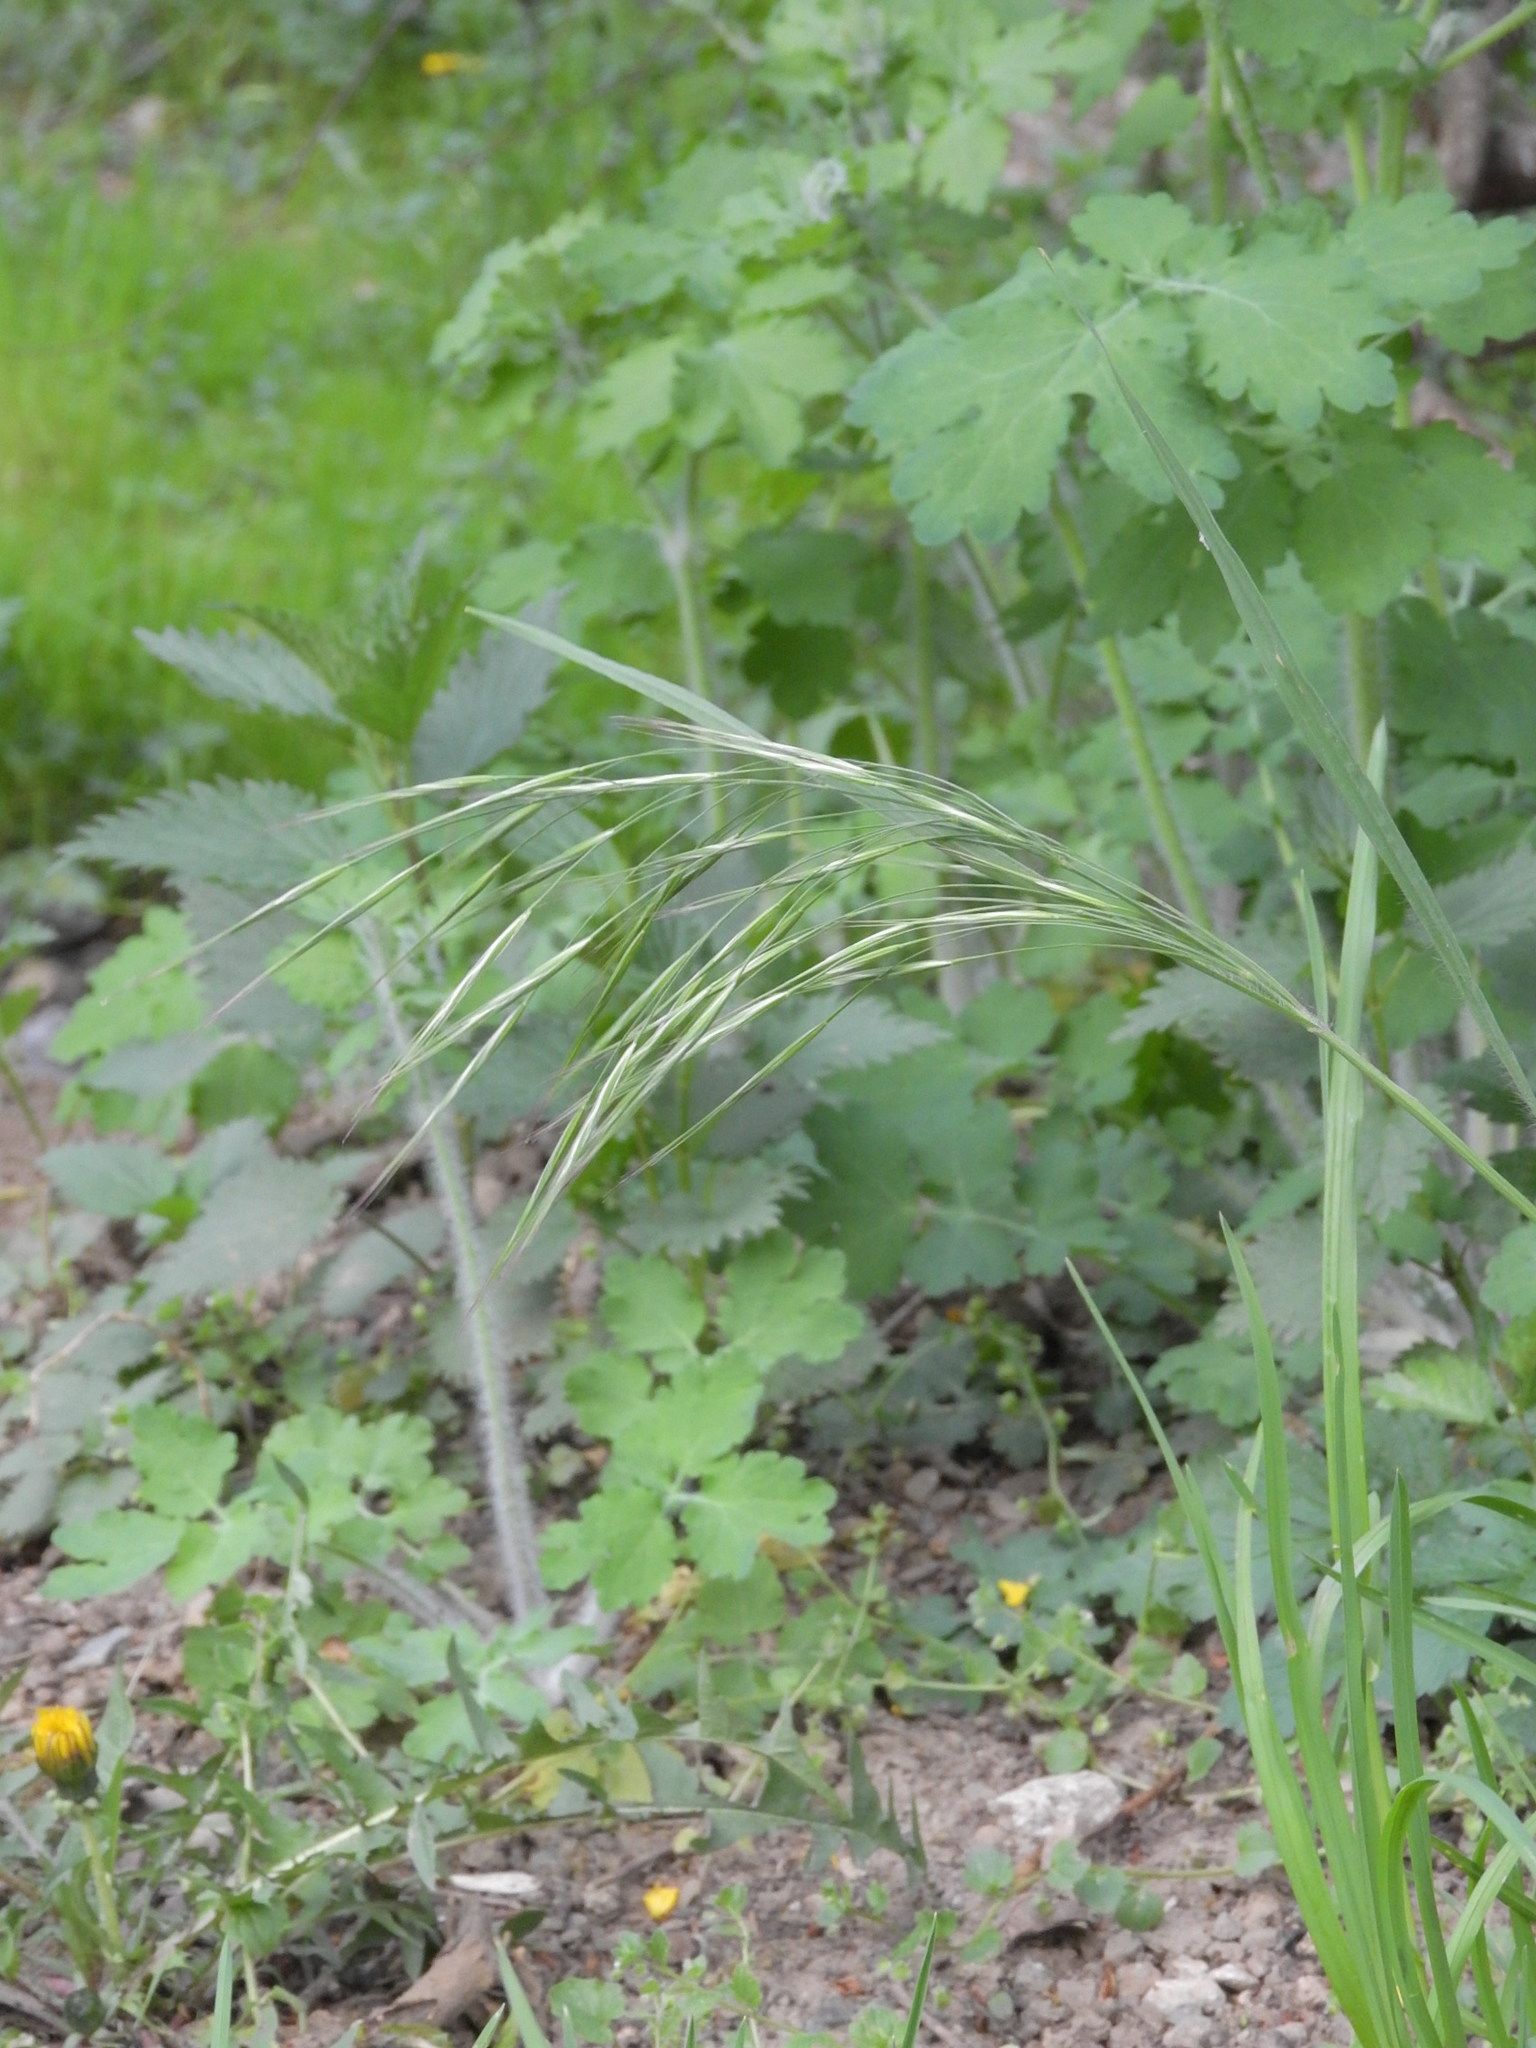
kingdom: Plantae
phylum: Tracheophyta
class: Liliopsida
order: Poales
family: Poaceae
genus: Bromus
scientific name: Bromus sterilis
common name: Poverty brome
